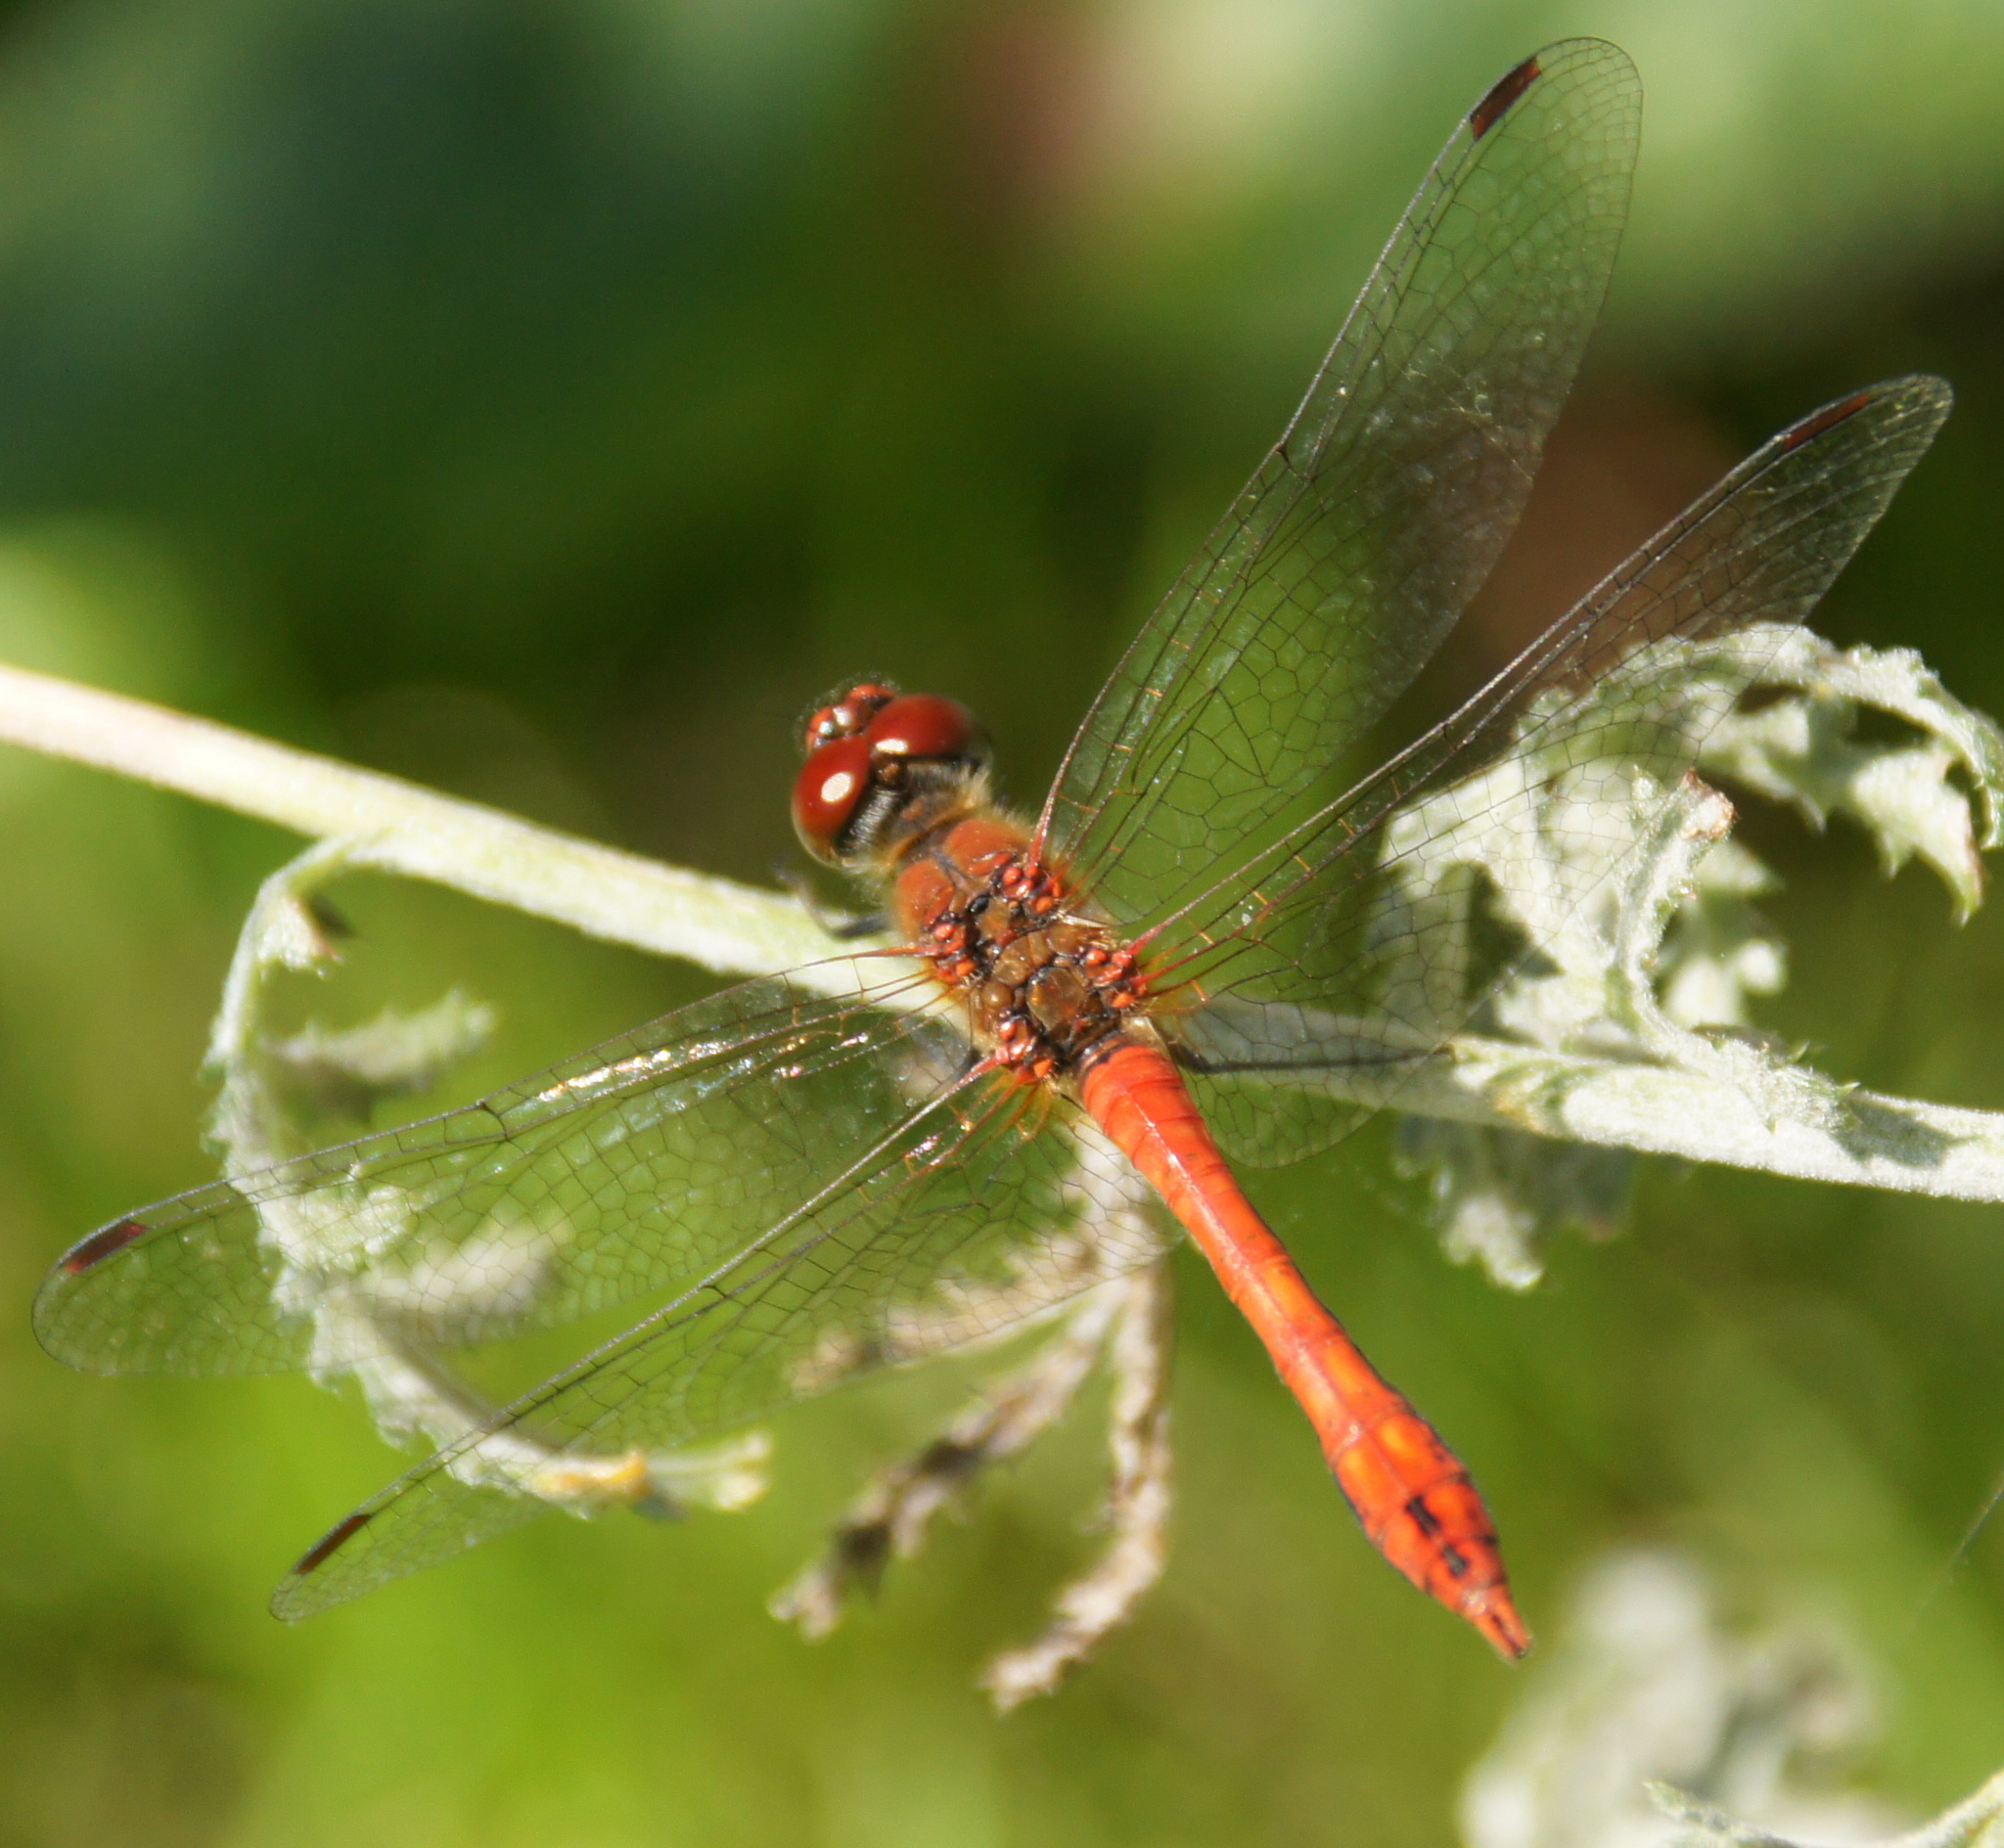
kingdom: Animalia
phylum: Arthropoda
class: Insecta
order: Odonata
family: Libellulidae
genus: Sympetrum
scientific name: Sympetrum sanguineum
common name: Ruddy darter
